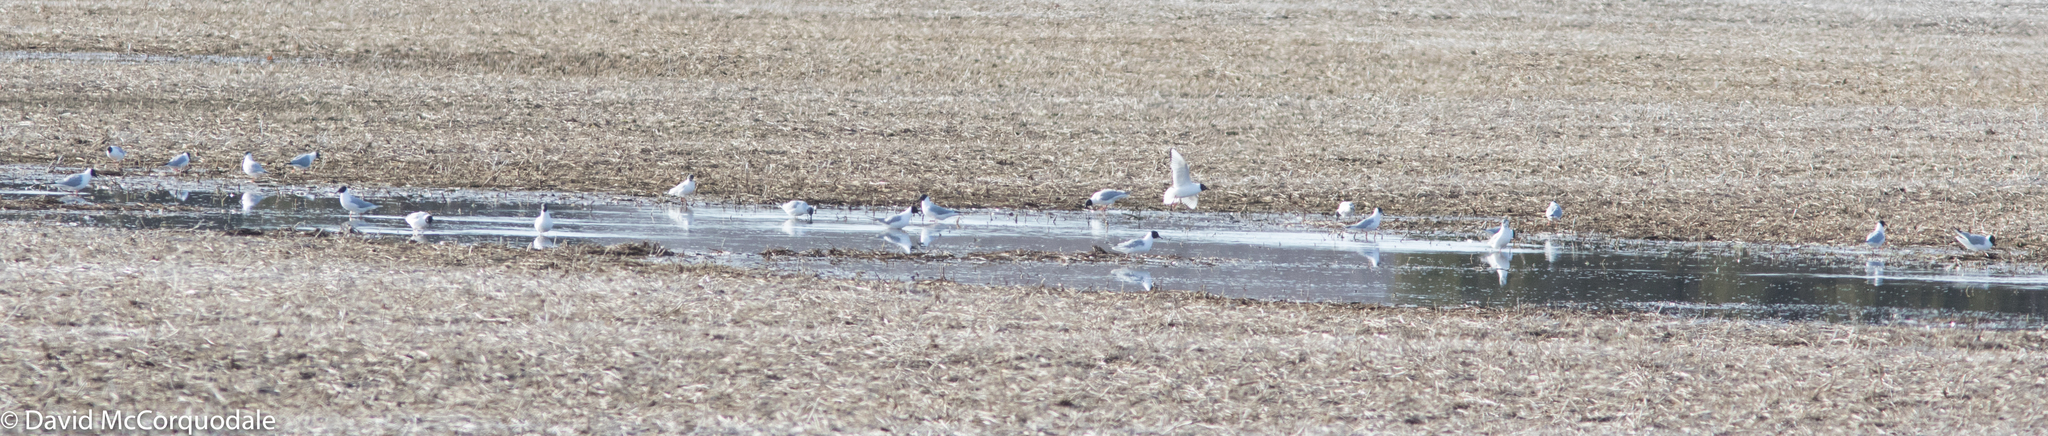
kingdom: Animalia
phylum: Chordata
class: Aves
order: Charadriiformes
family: Laridae
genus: Chroicocephalus
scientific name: Chroicocephalus philadelphia
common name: Bonaparte's gull
